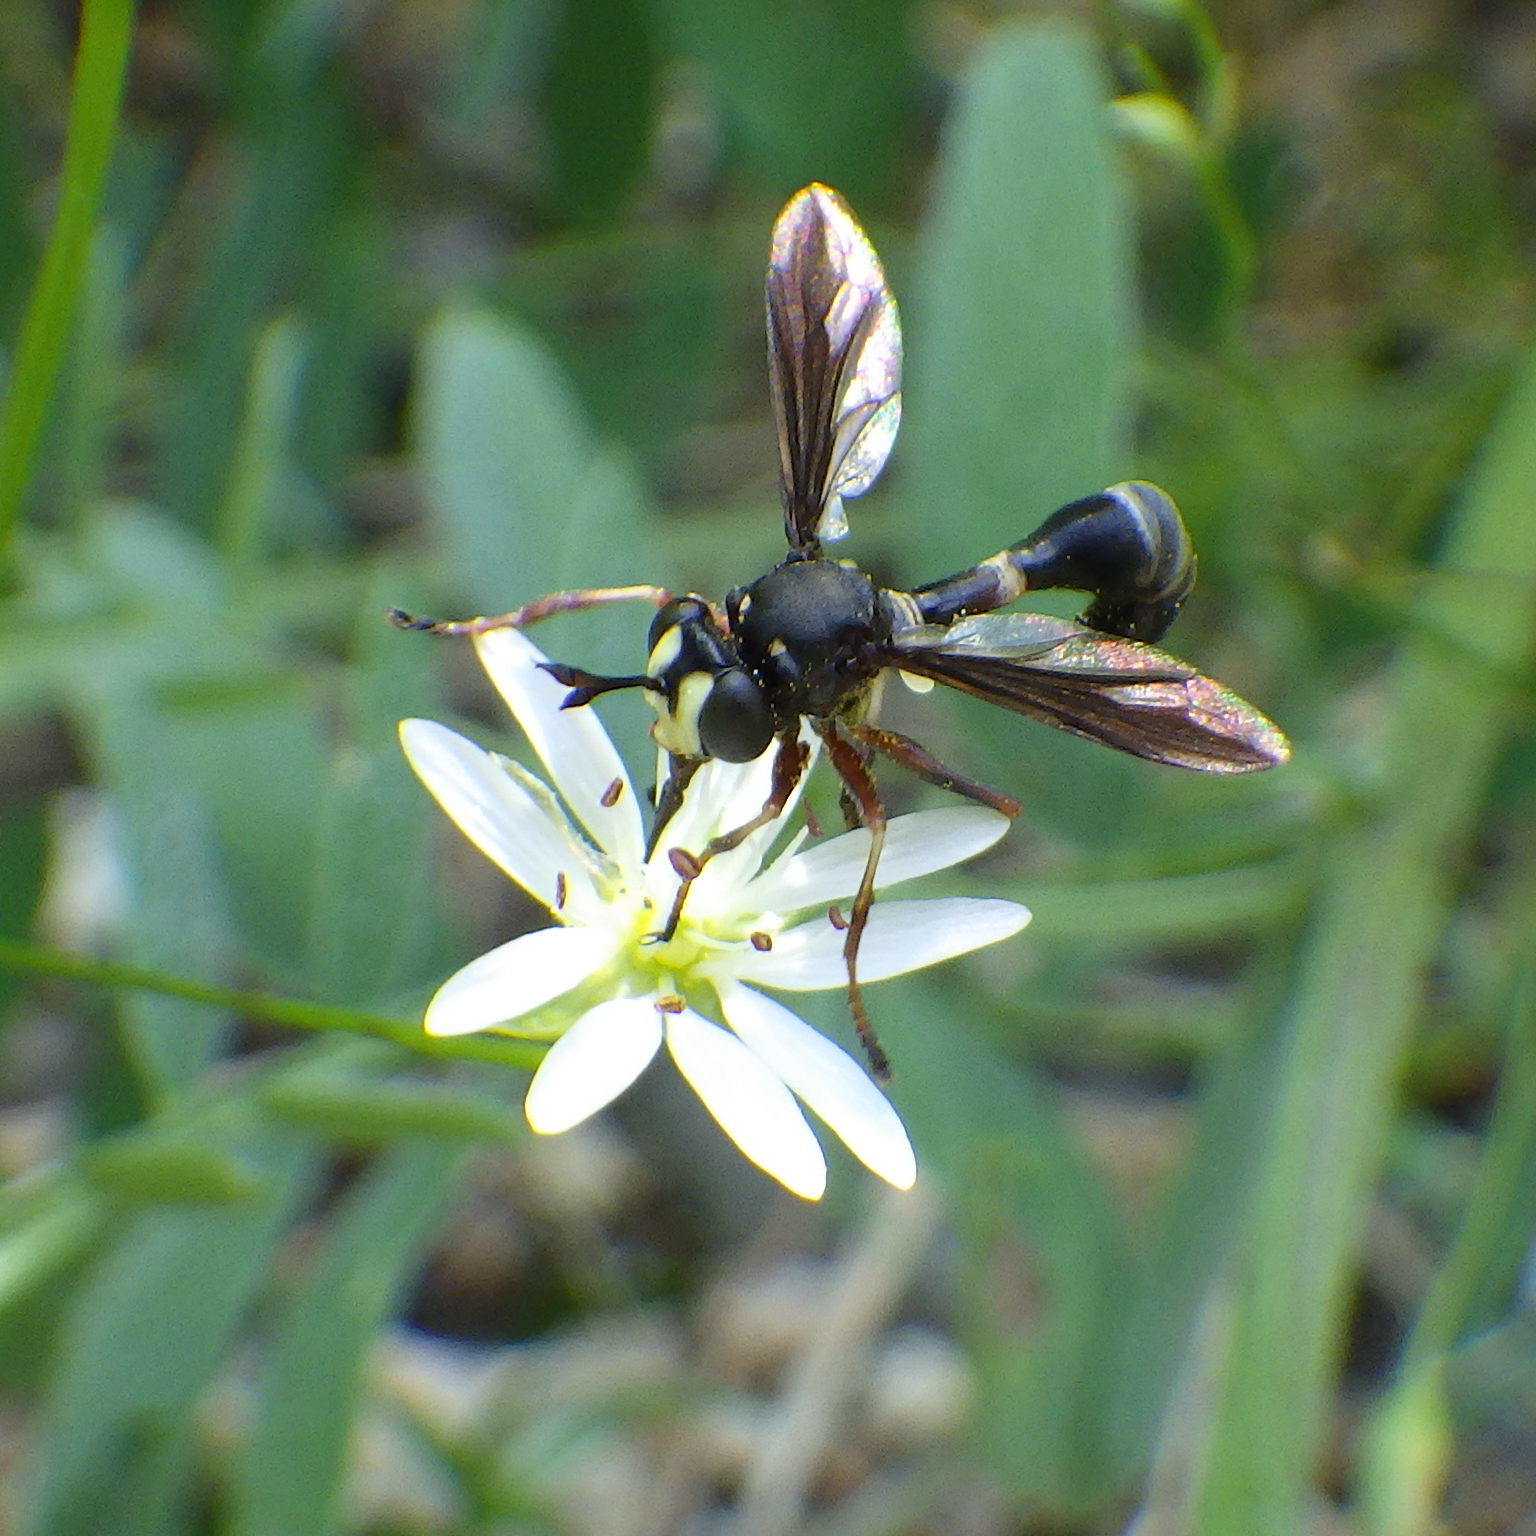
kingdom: Animalia
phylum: Arthropoda
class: Insecta
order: Diptera
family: Conopidae
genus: Physocephala
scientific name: Physocephala furcillata
